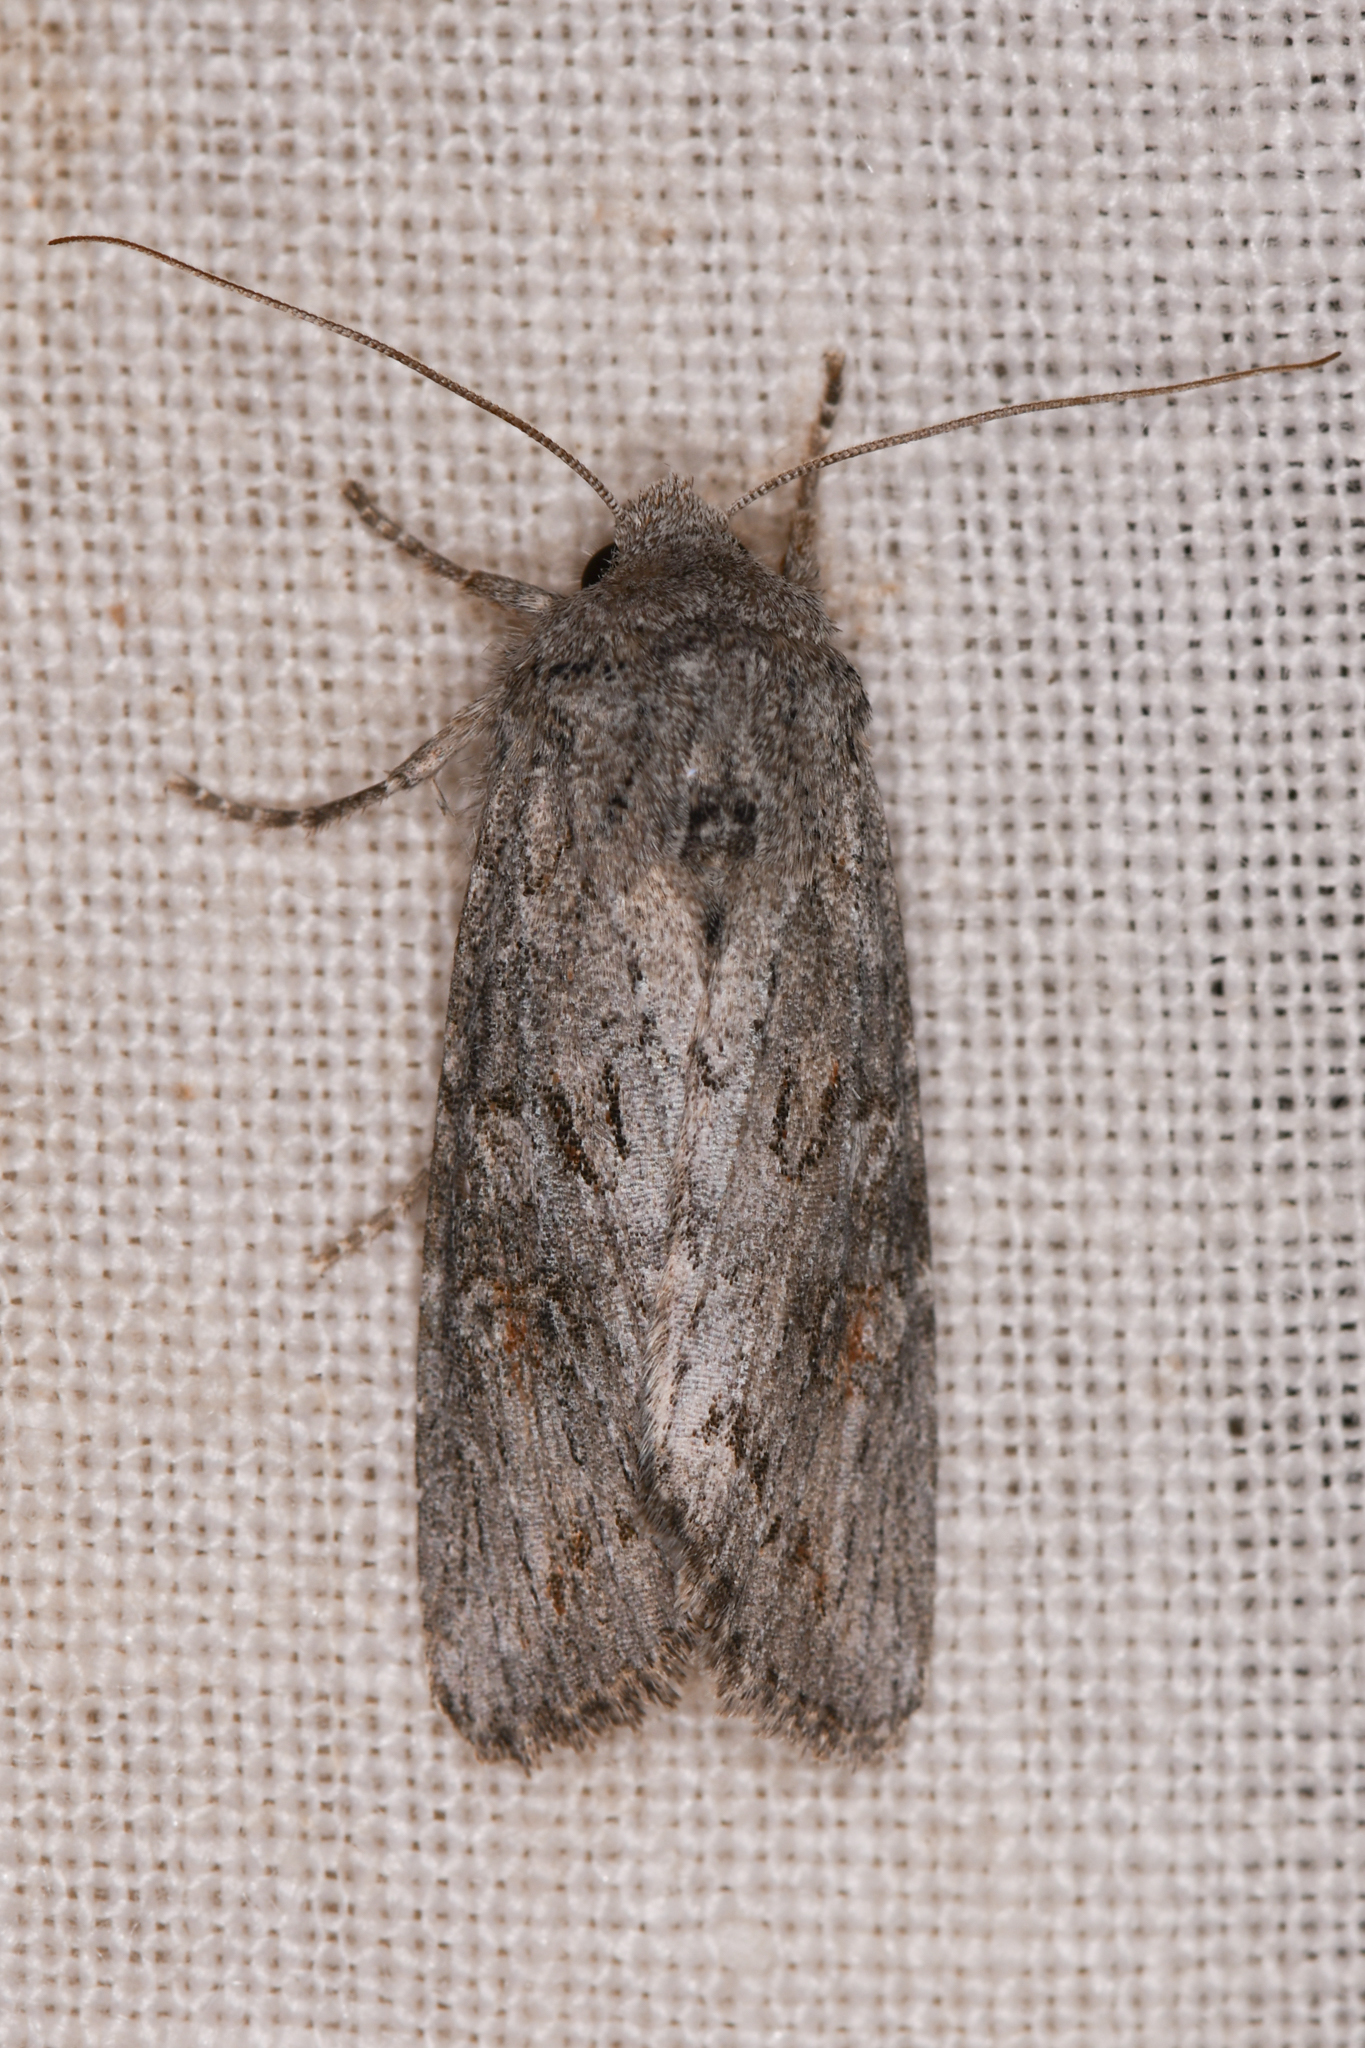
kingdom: Animalia
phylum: Arthropoda
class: Insecta
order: Lepidoptera
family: Noctuidae
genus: Egira
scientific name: Egira curialis
